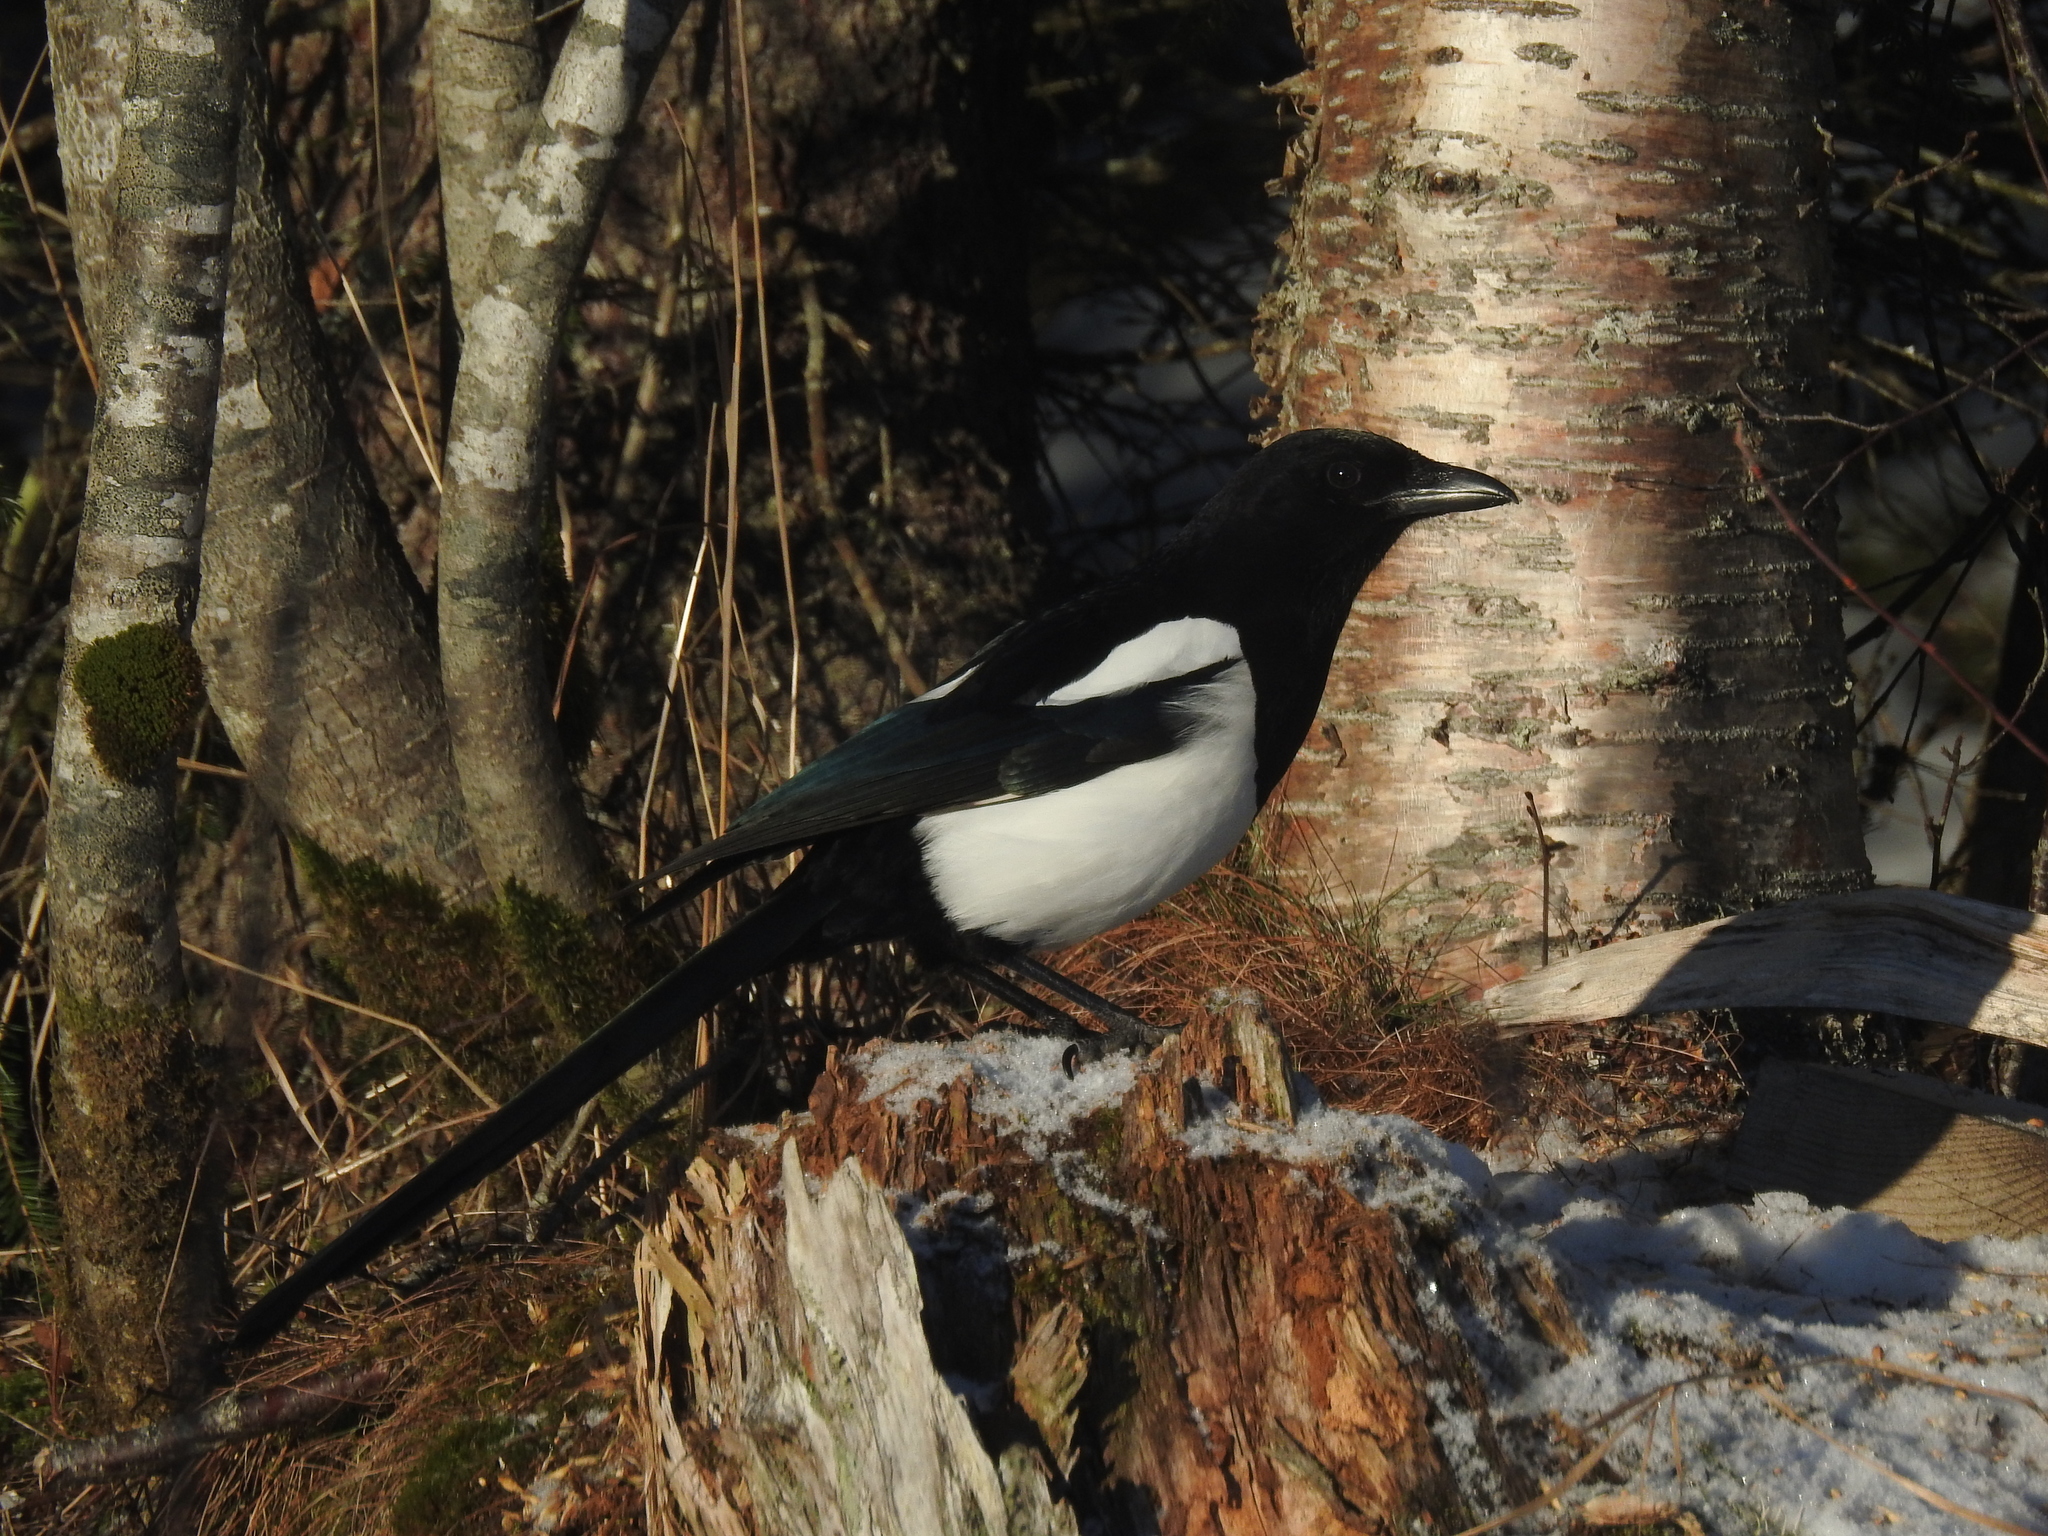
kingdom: Animalia
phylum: Chordata
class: Aves
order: Passeriformes
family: Corvidae
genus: Pica
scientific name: Pica pica
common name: Eurasian magpie
